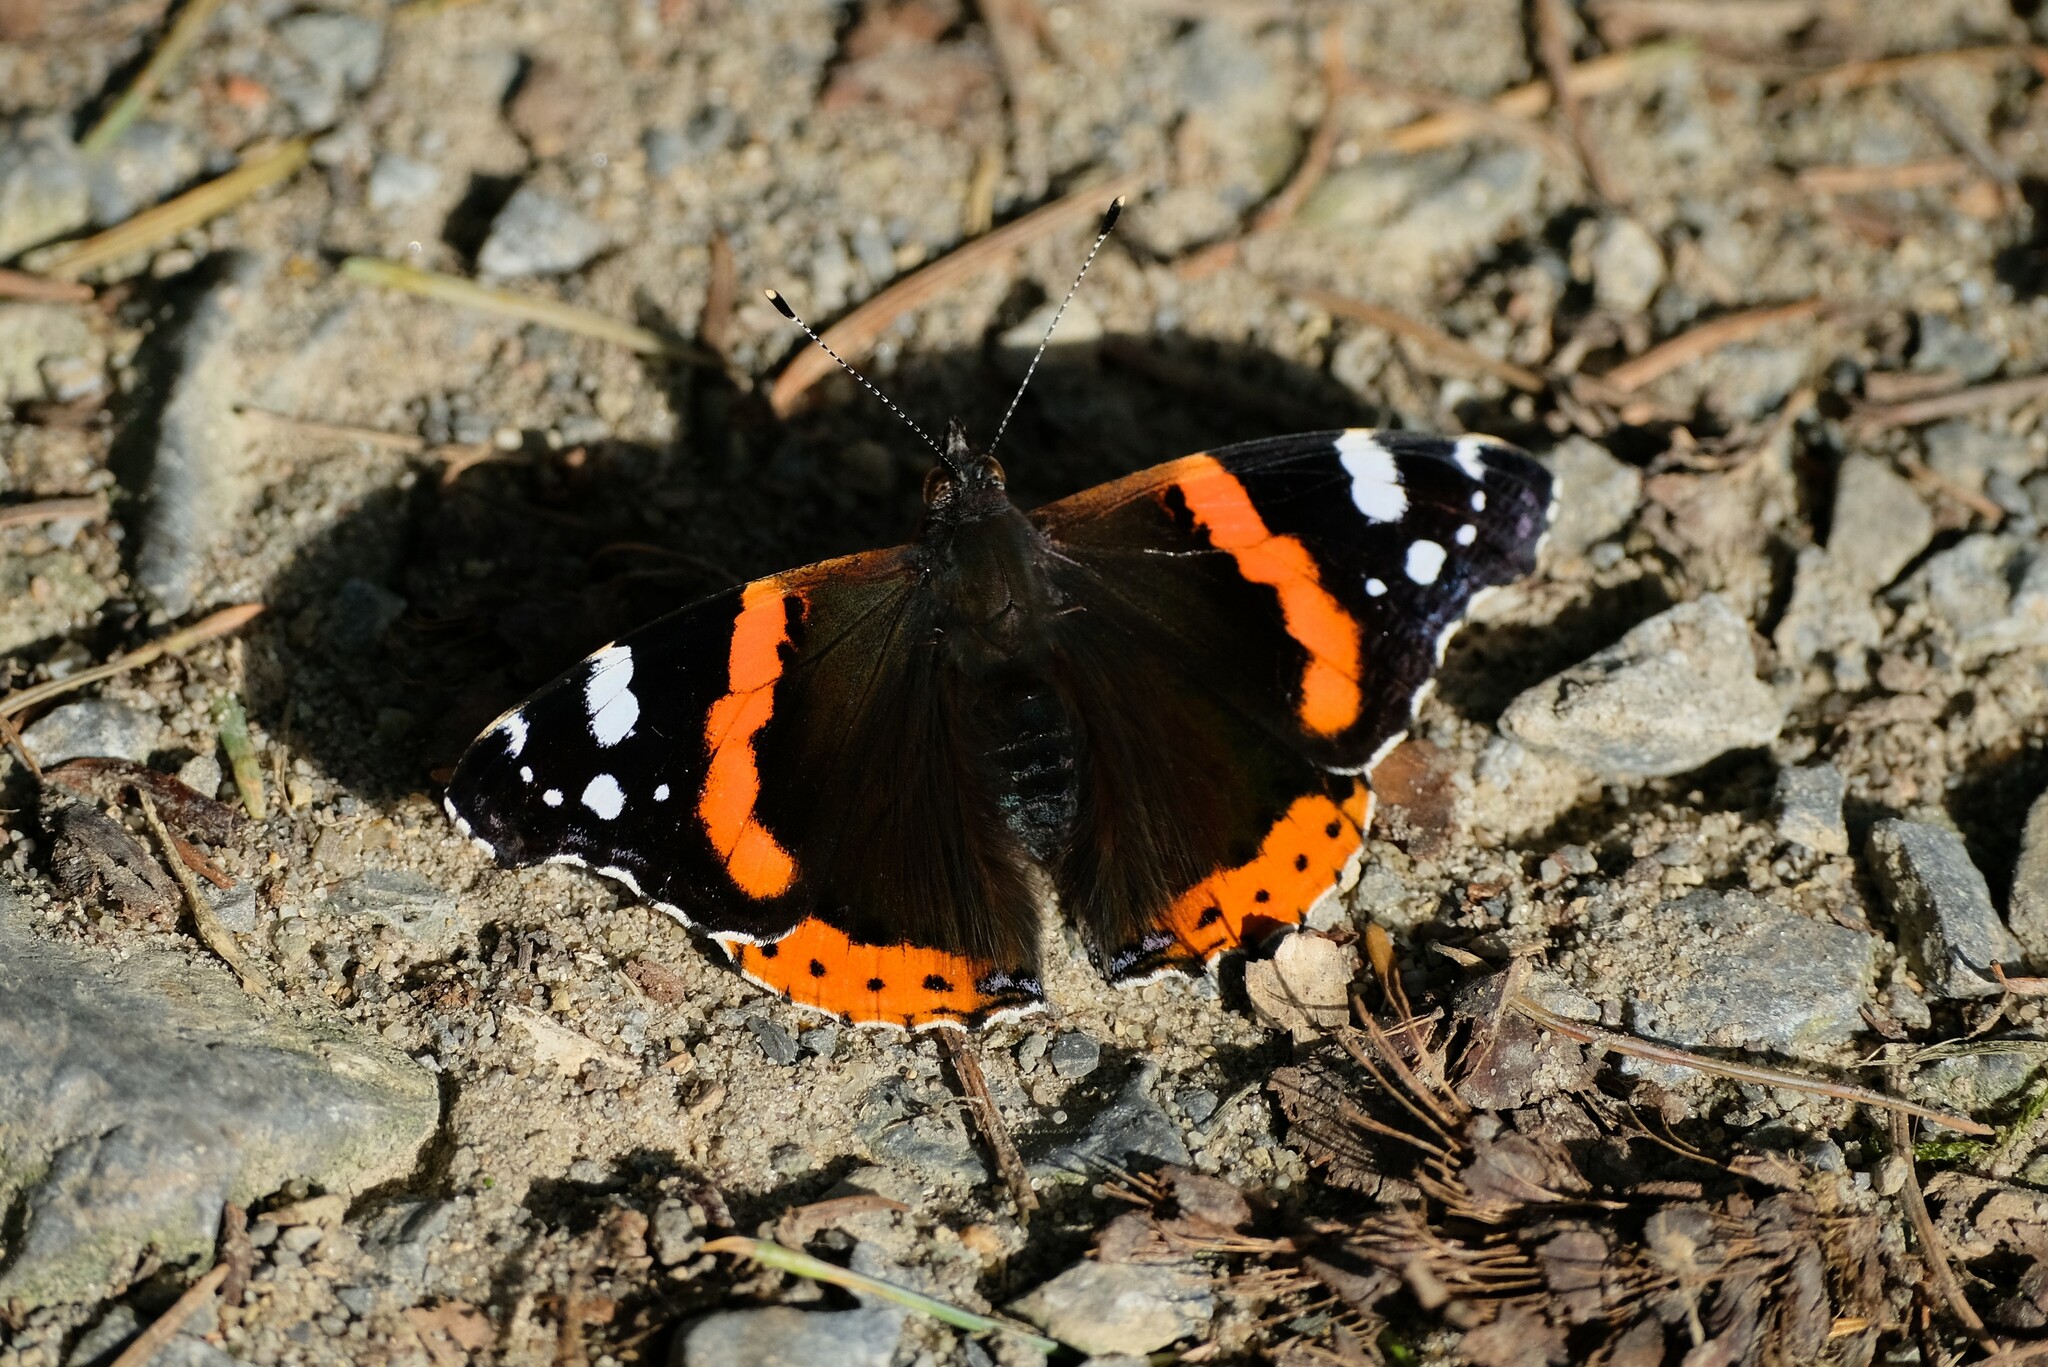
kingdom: Animalia
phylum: Arthropoda
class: Insecta
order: Lepidoptera
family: Nymphalidae
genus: Vanessa
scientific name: Vanessa atalanta
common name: Red admiral
